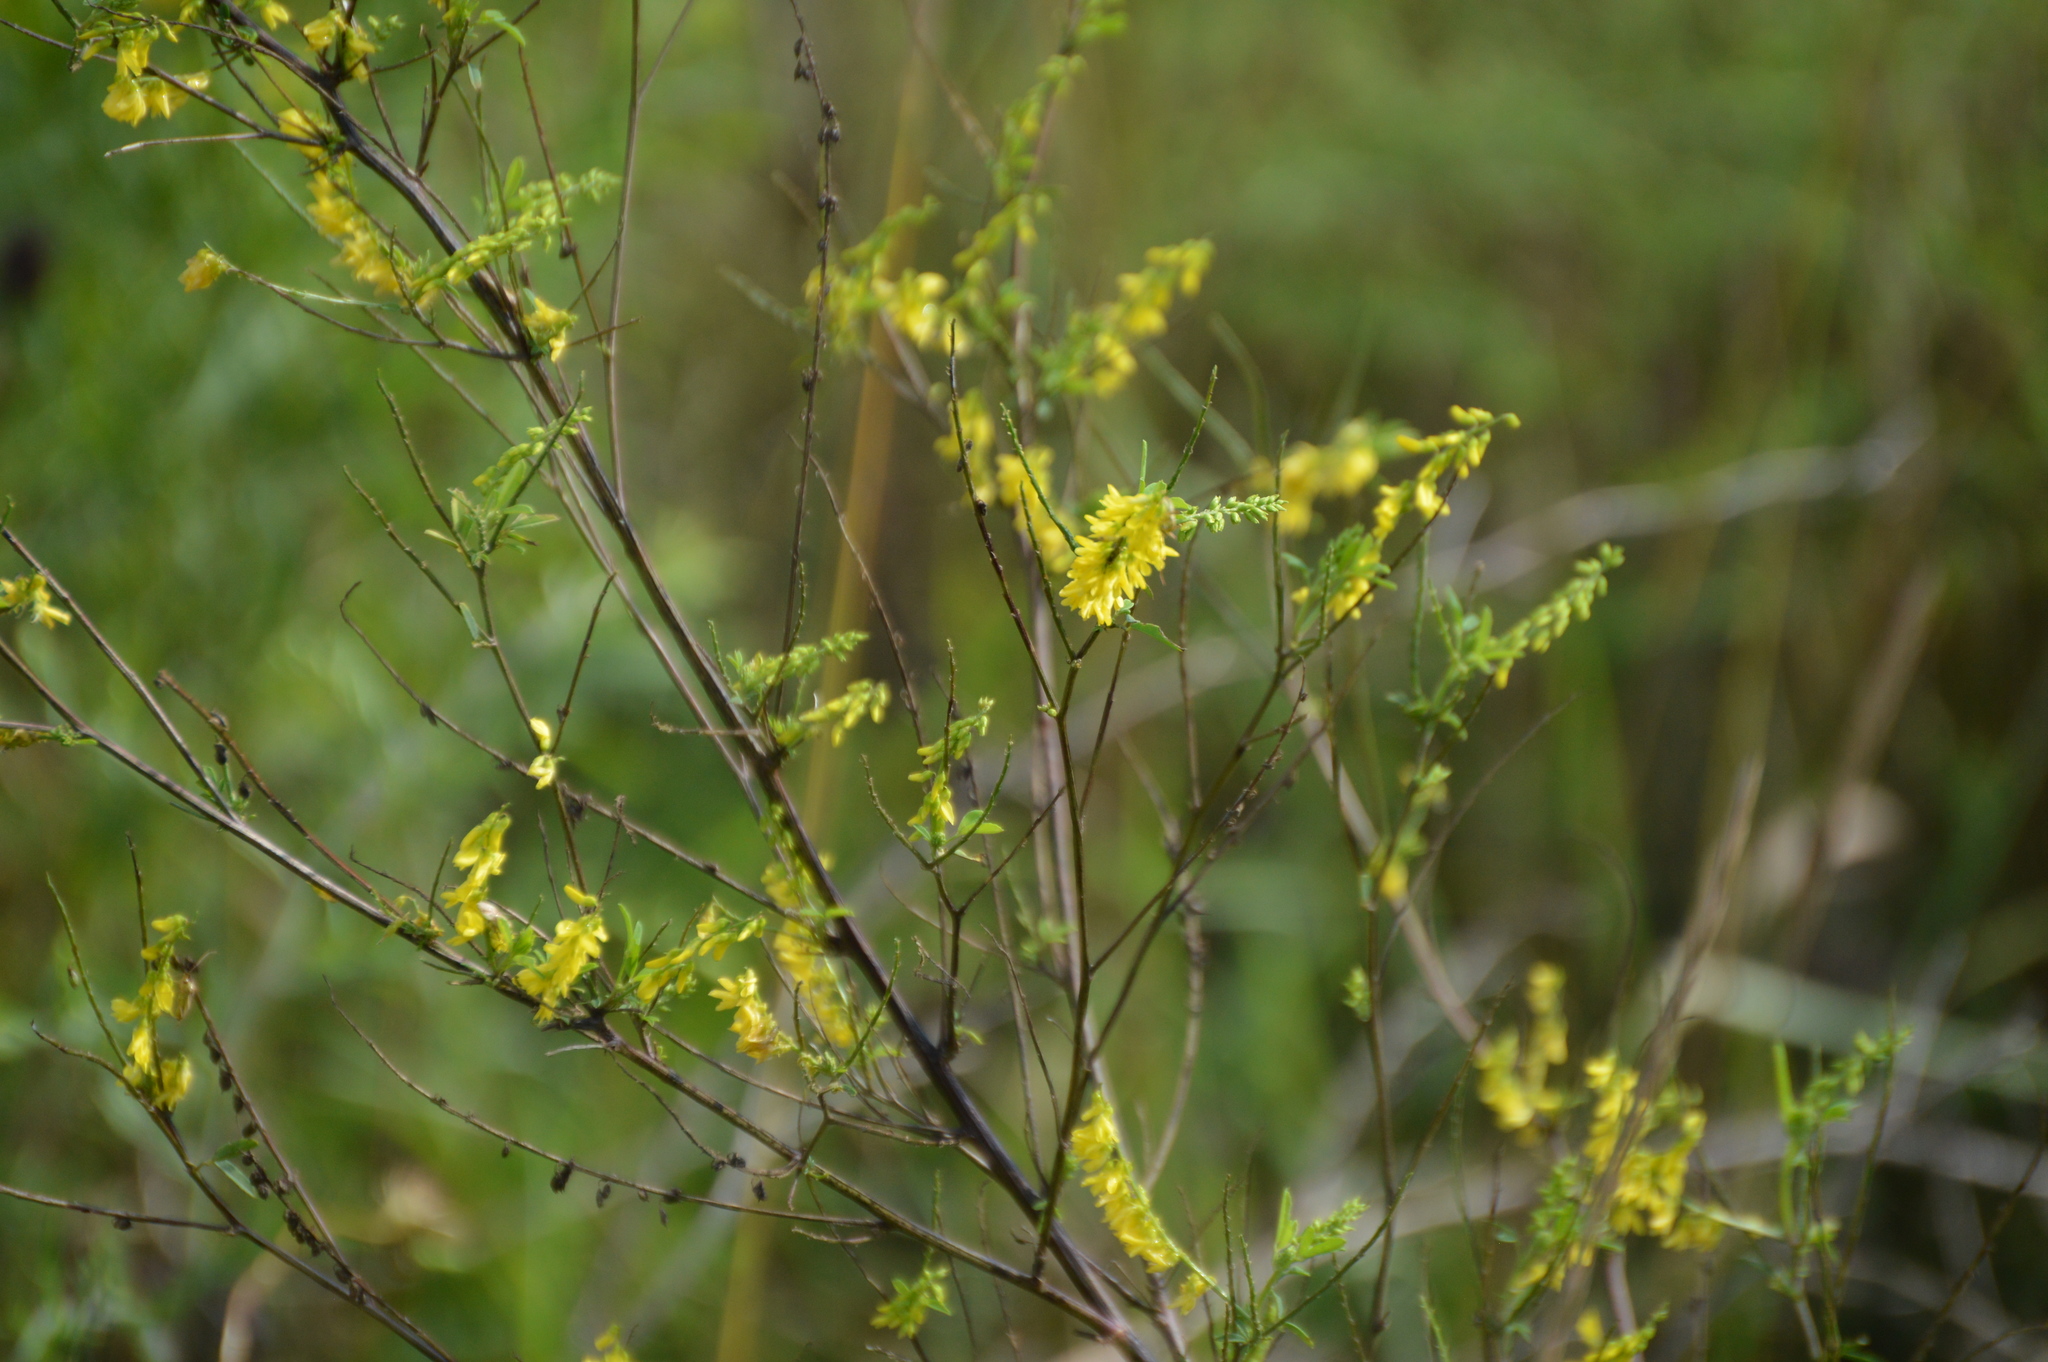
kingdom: Plantae
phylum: Tracheophyta
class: Magnoliopsida
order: Fabales
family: Fabaceae
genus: Melilotus
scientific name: Melilotus officinalis
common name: Sweetclover
